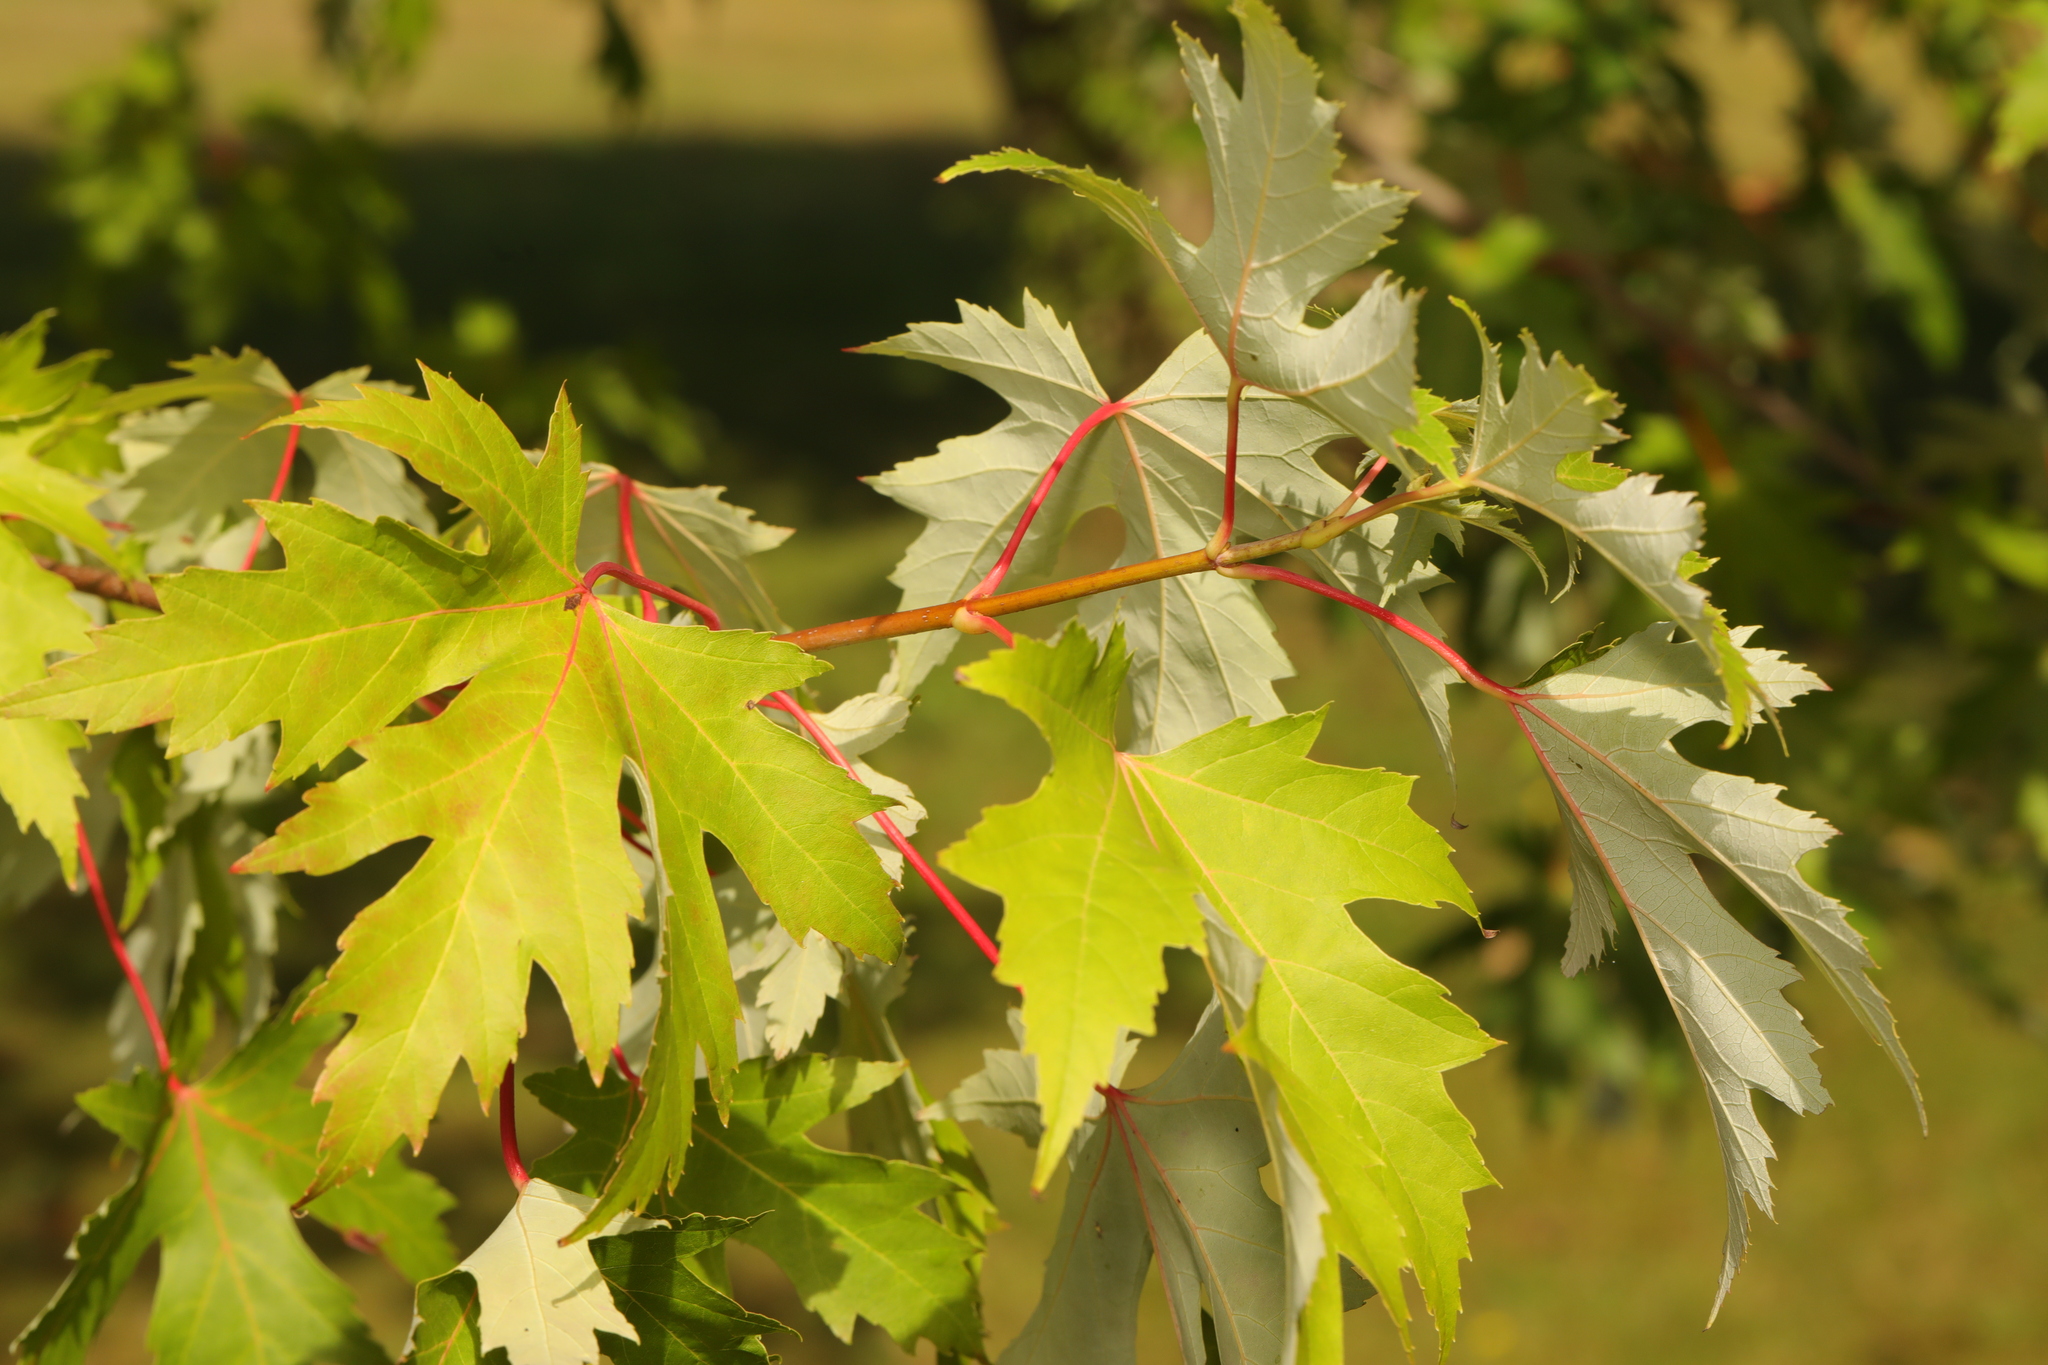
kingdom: Plantae
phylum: Tracheophyta
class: Magnoliopsida
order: Sapindales
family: Sapindaceae
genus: Acer
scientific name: Acer saccharinum
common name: Silver maple
